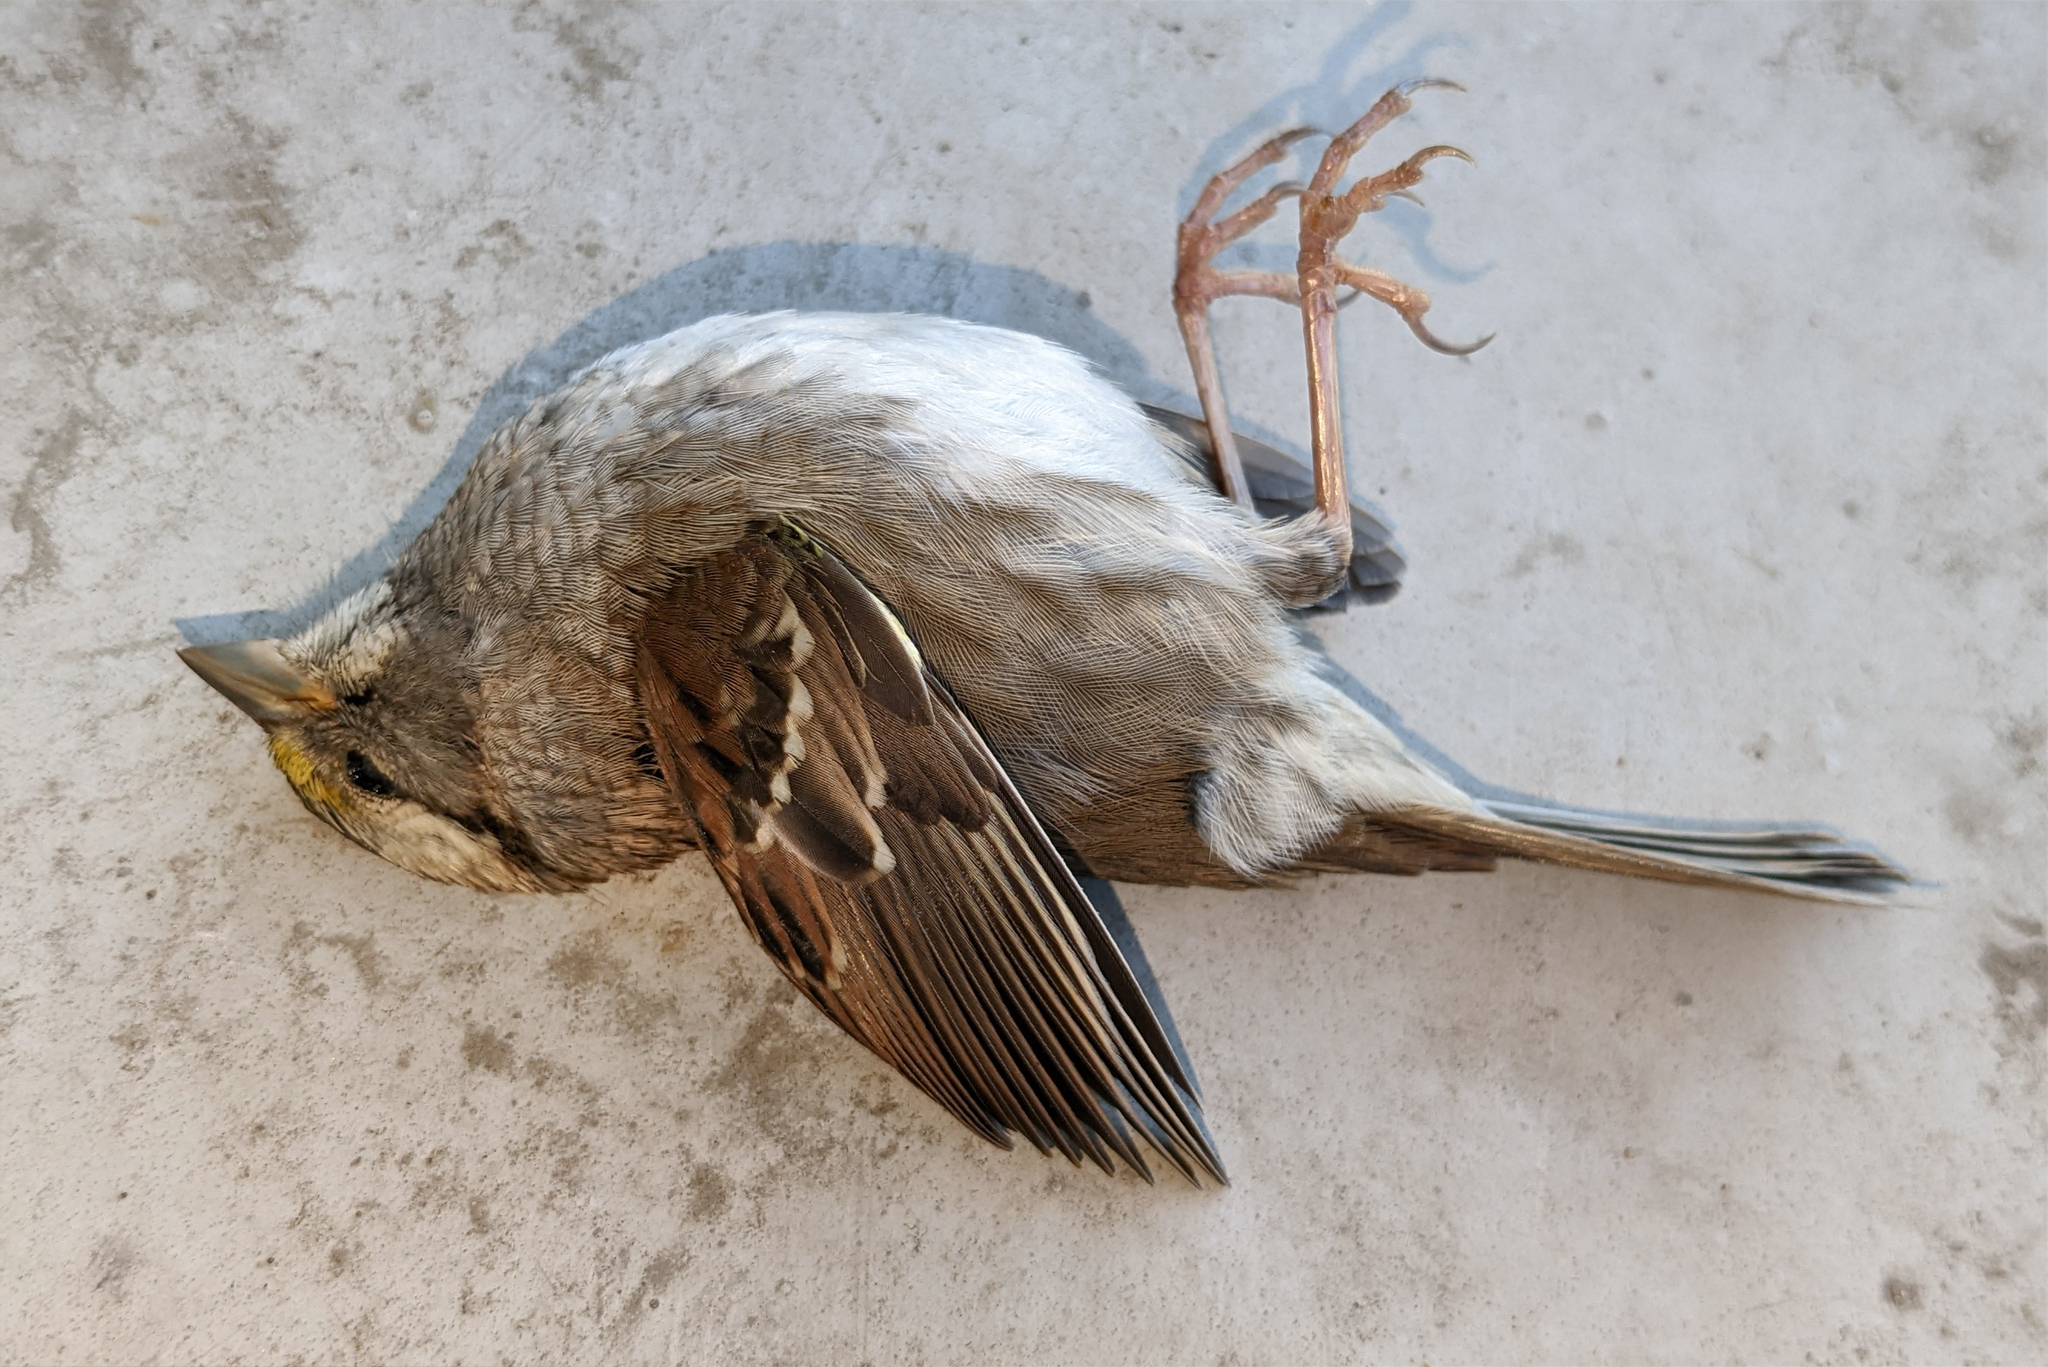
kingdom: Animalia
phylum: Chordata
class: Aves
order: Passeriformes
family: Passerellidae
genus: Zonotrichia
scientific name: Zonotrichia albicollis
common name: White-throated sparrow
